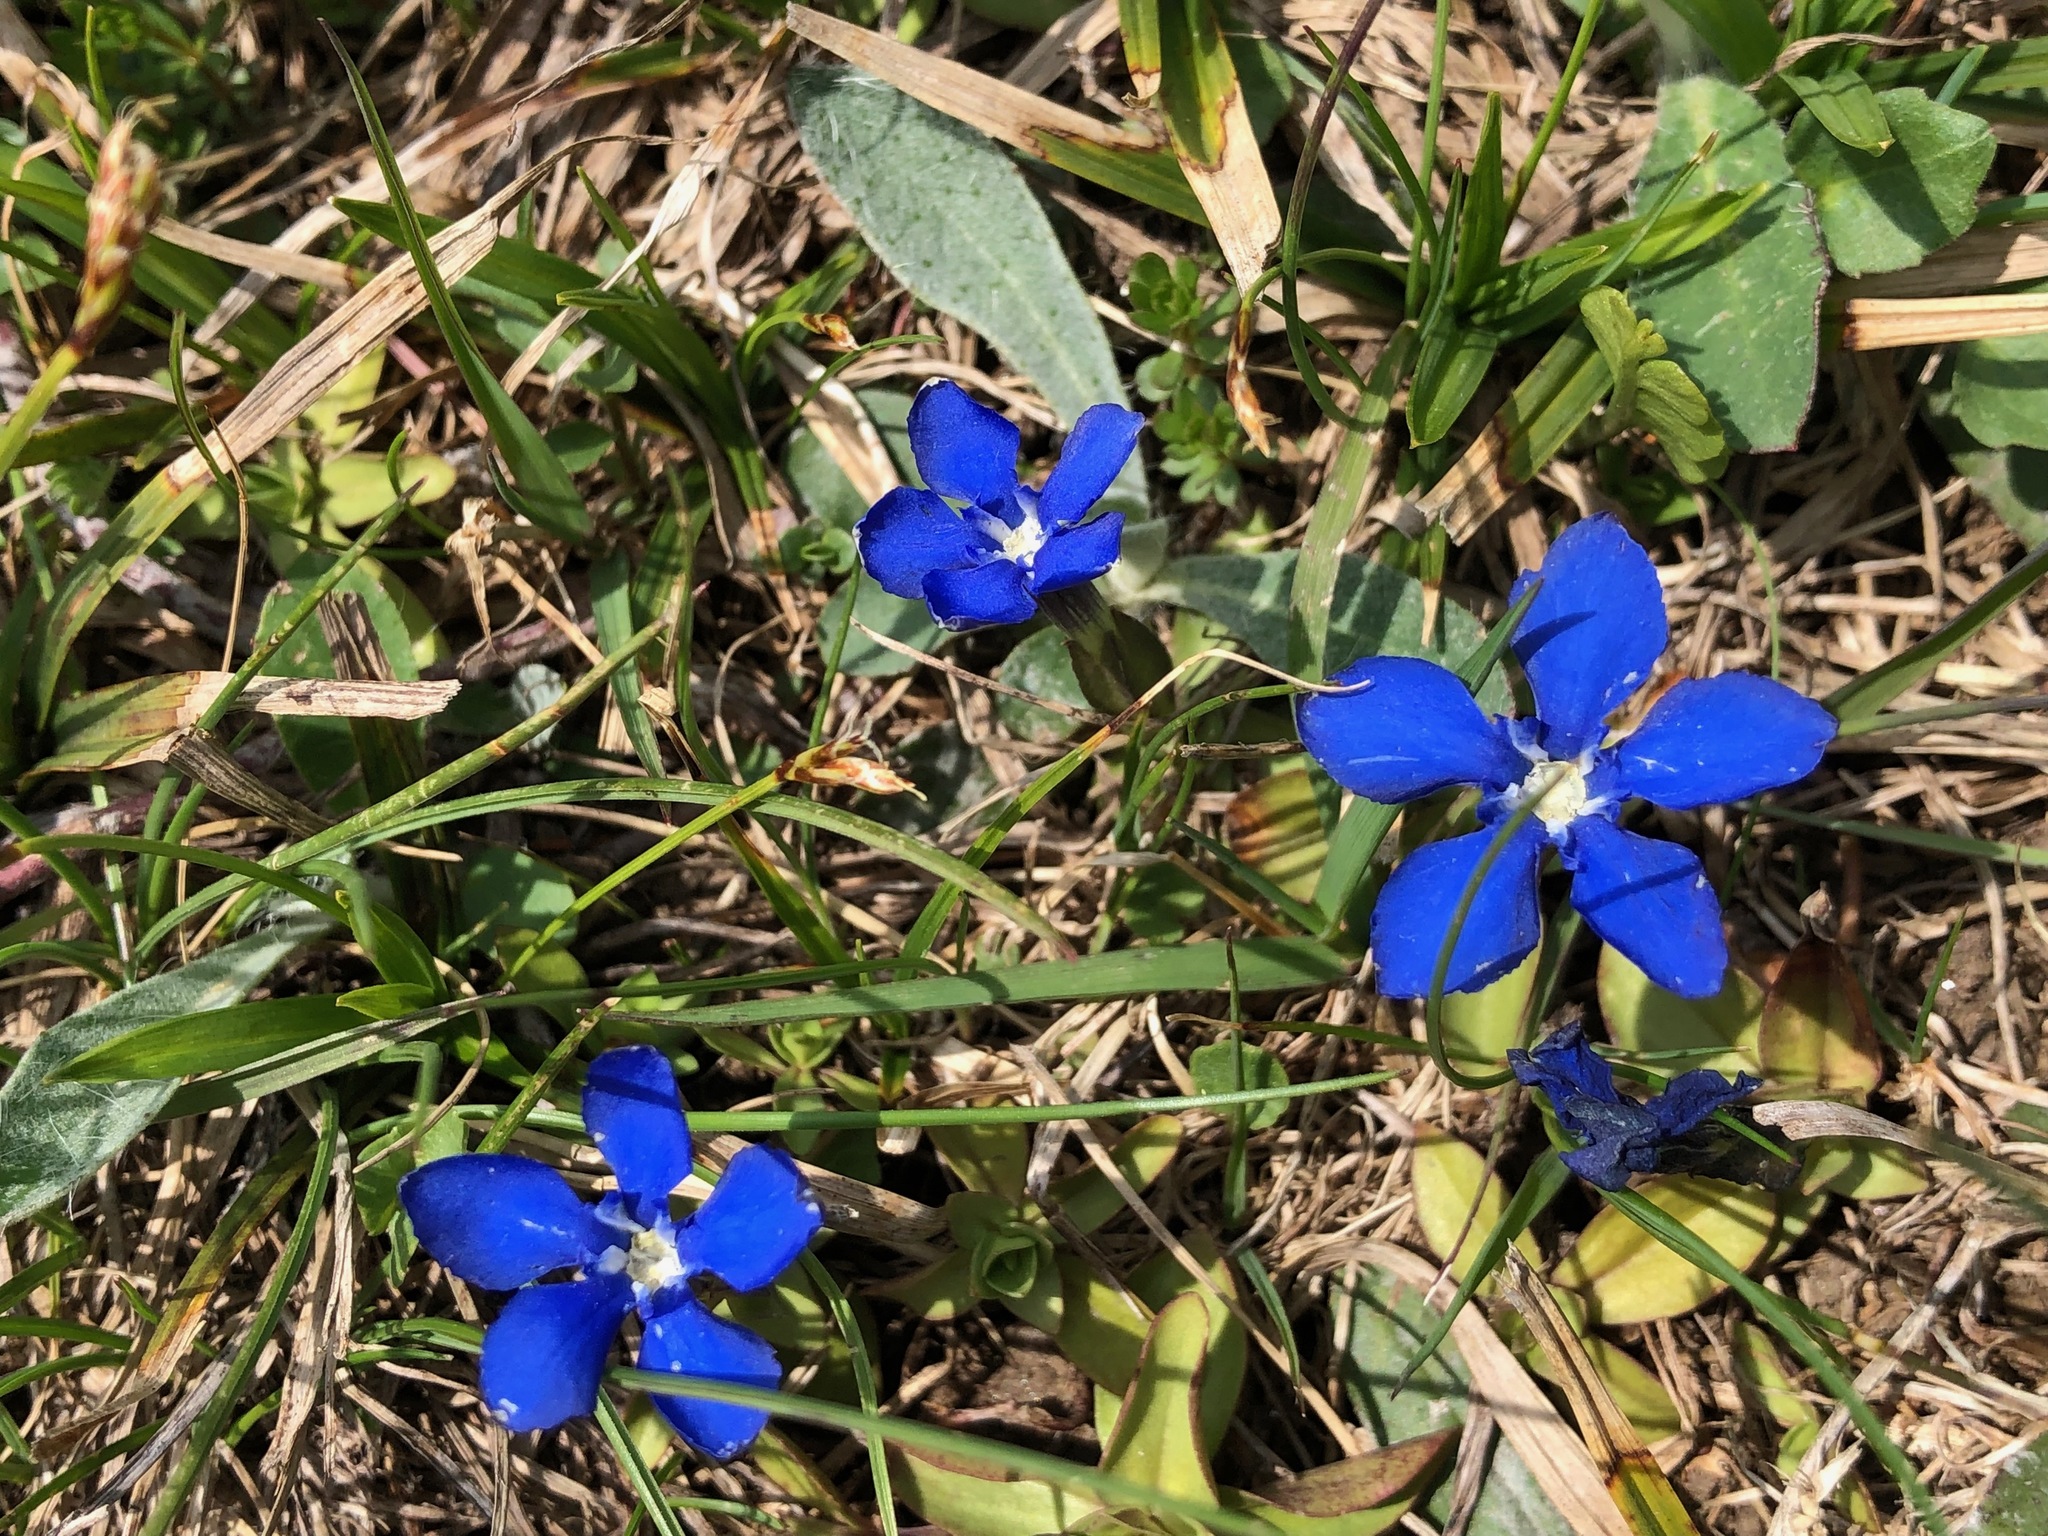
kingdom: Plantae
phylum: Tracheophyta
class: Magnoliopsida
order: Gentianales
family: Gentianaceae
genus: Gentiana
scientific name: Gentiana verna
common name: Spring gentian
